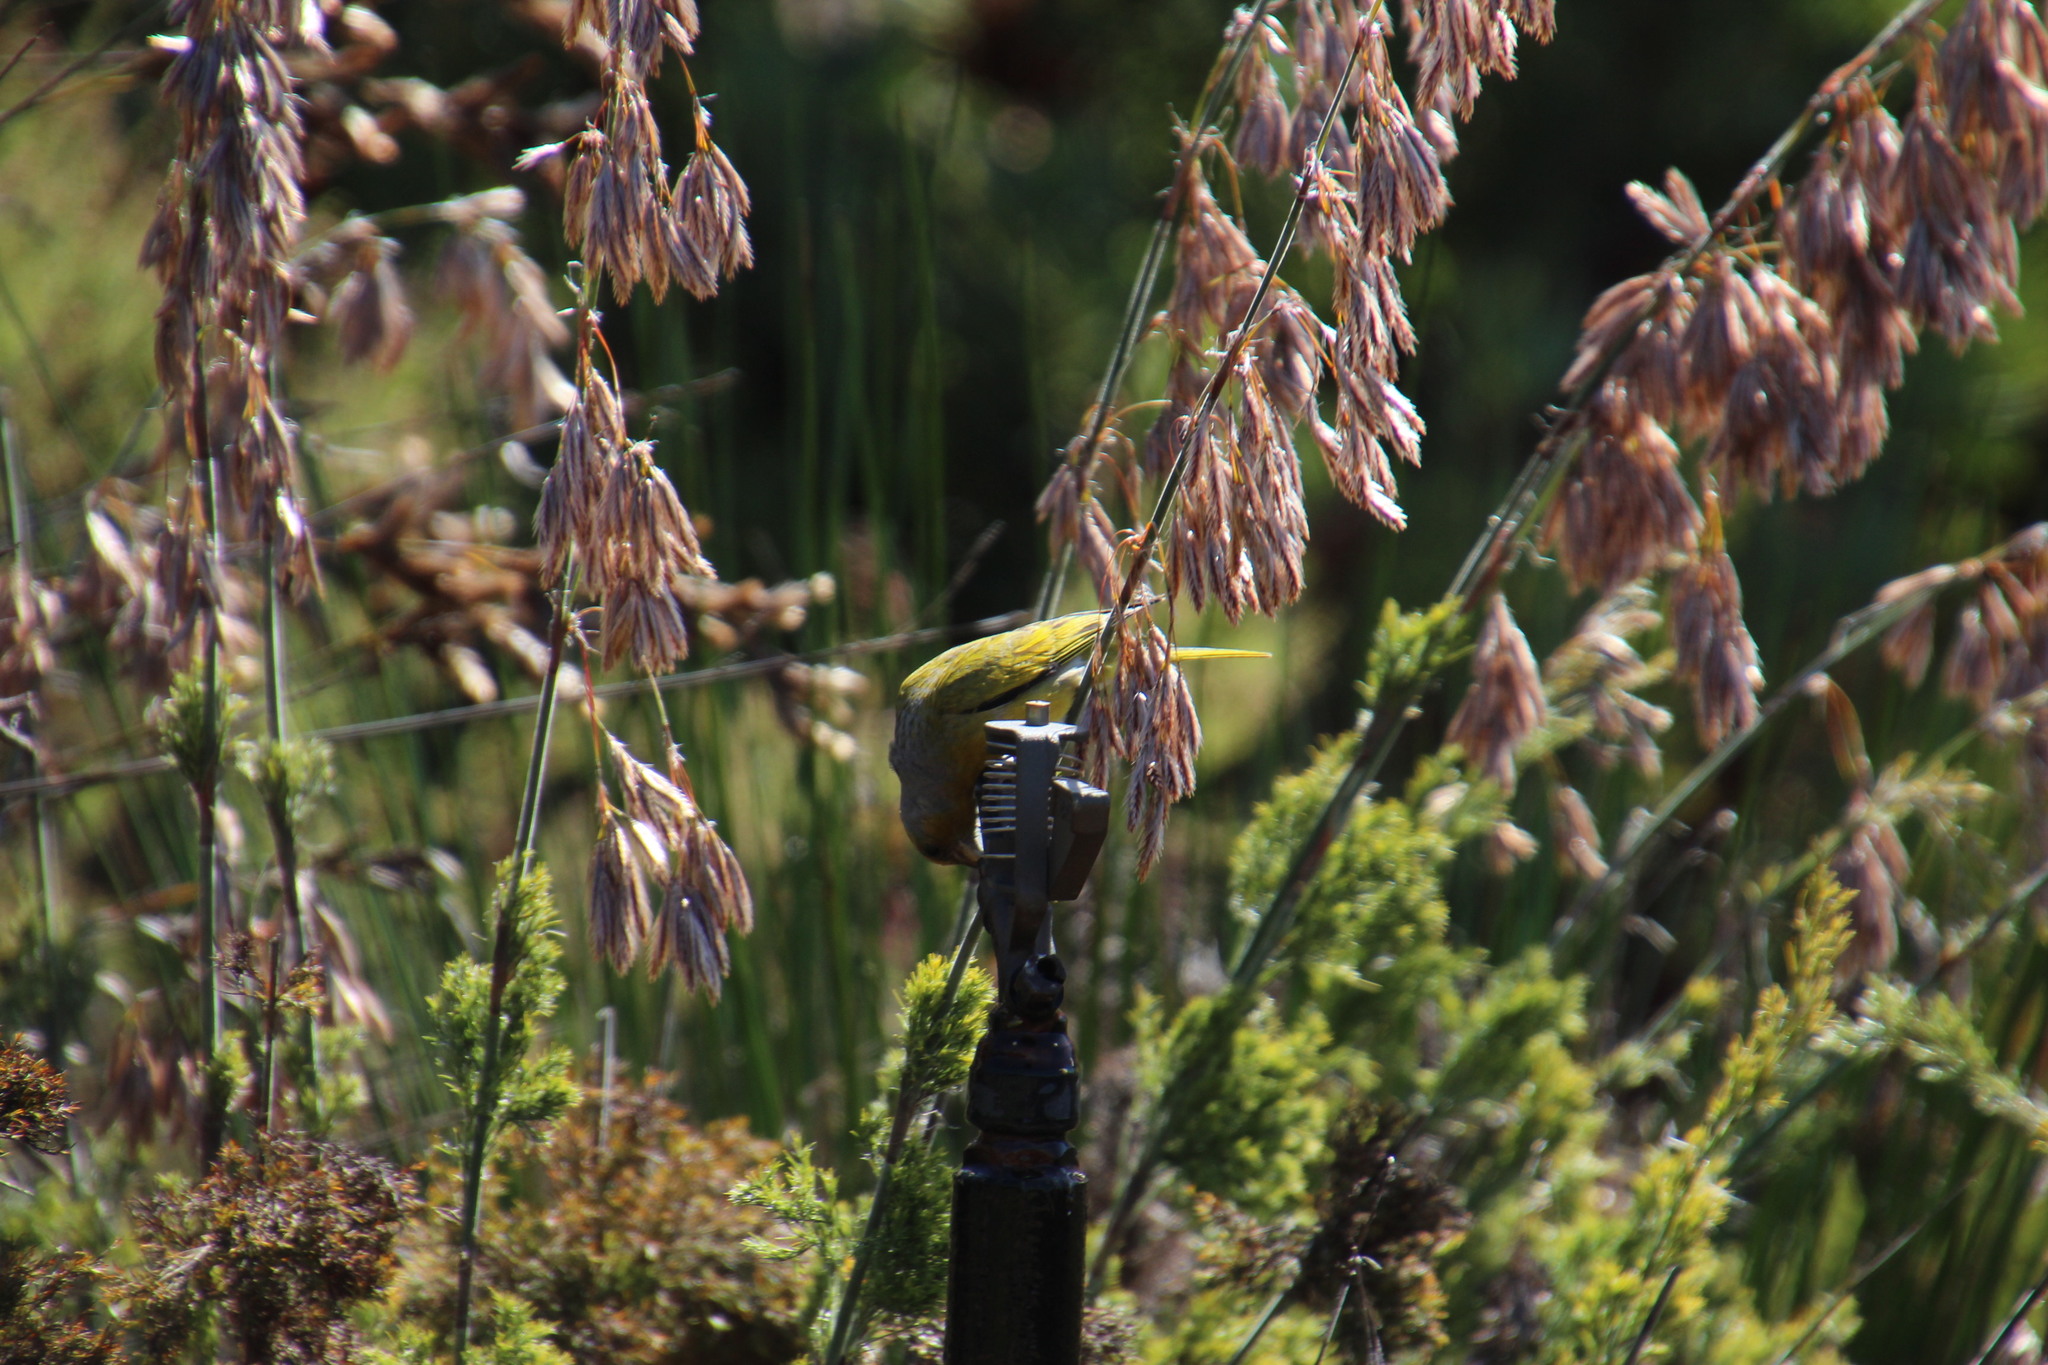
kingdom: Animalia
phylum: Chordata
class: Aves
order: Passeriformes
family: Fringillidae
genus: Serinus
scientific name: Serinus canicollis
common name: Cape canary
